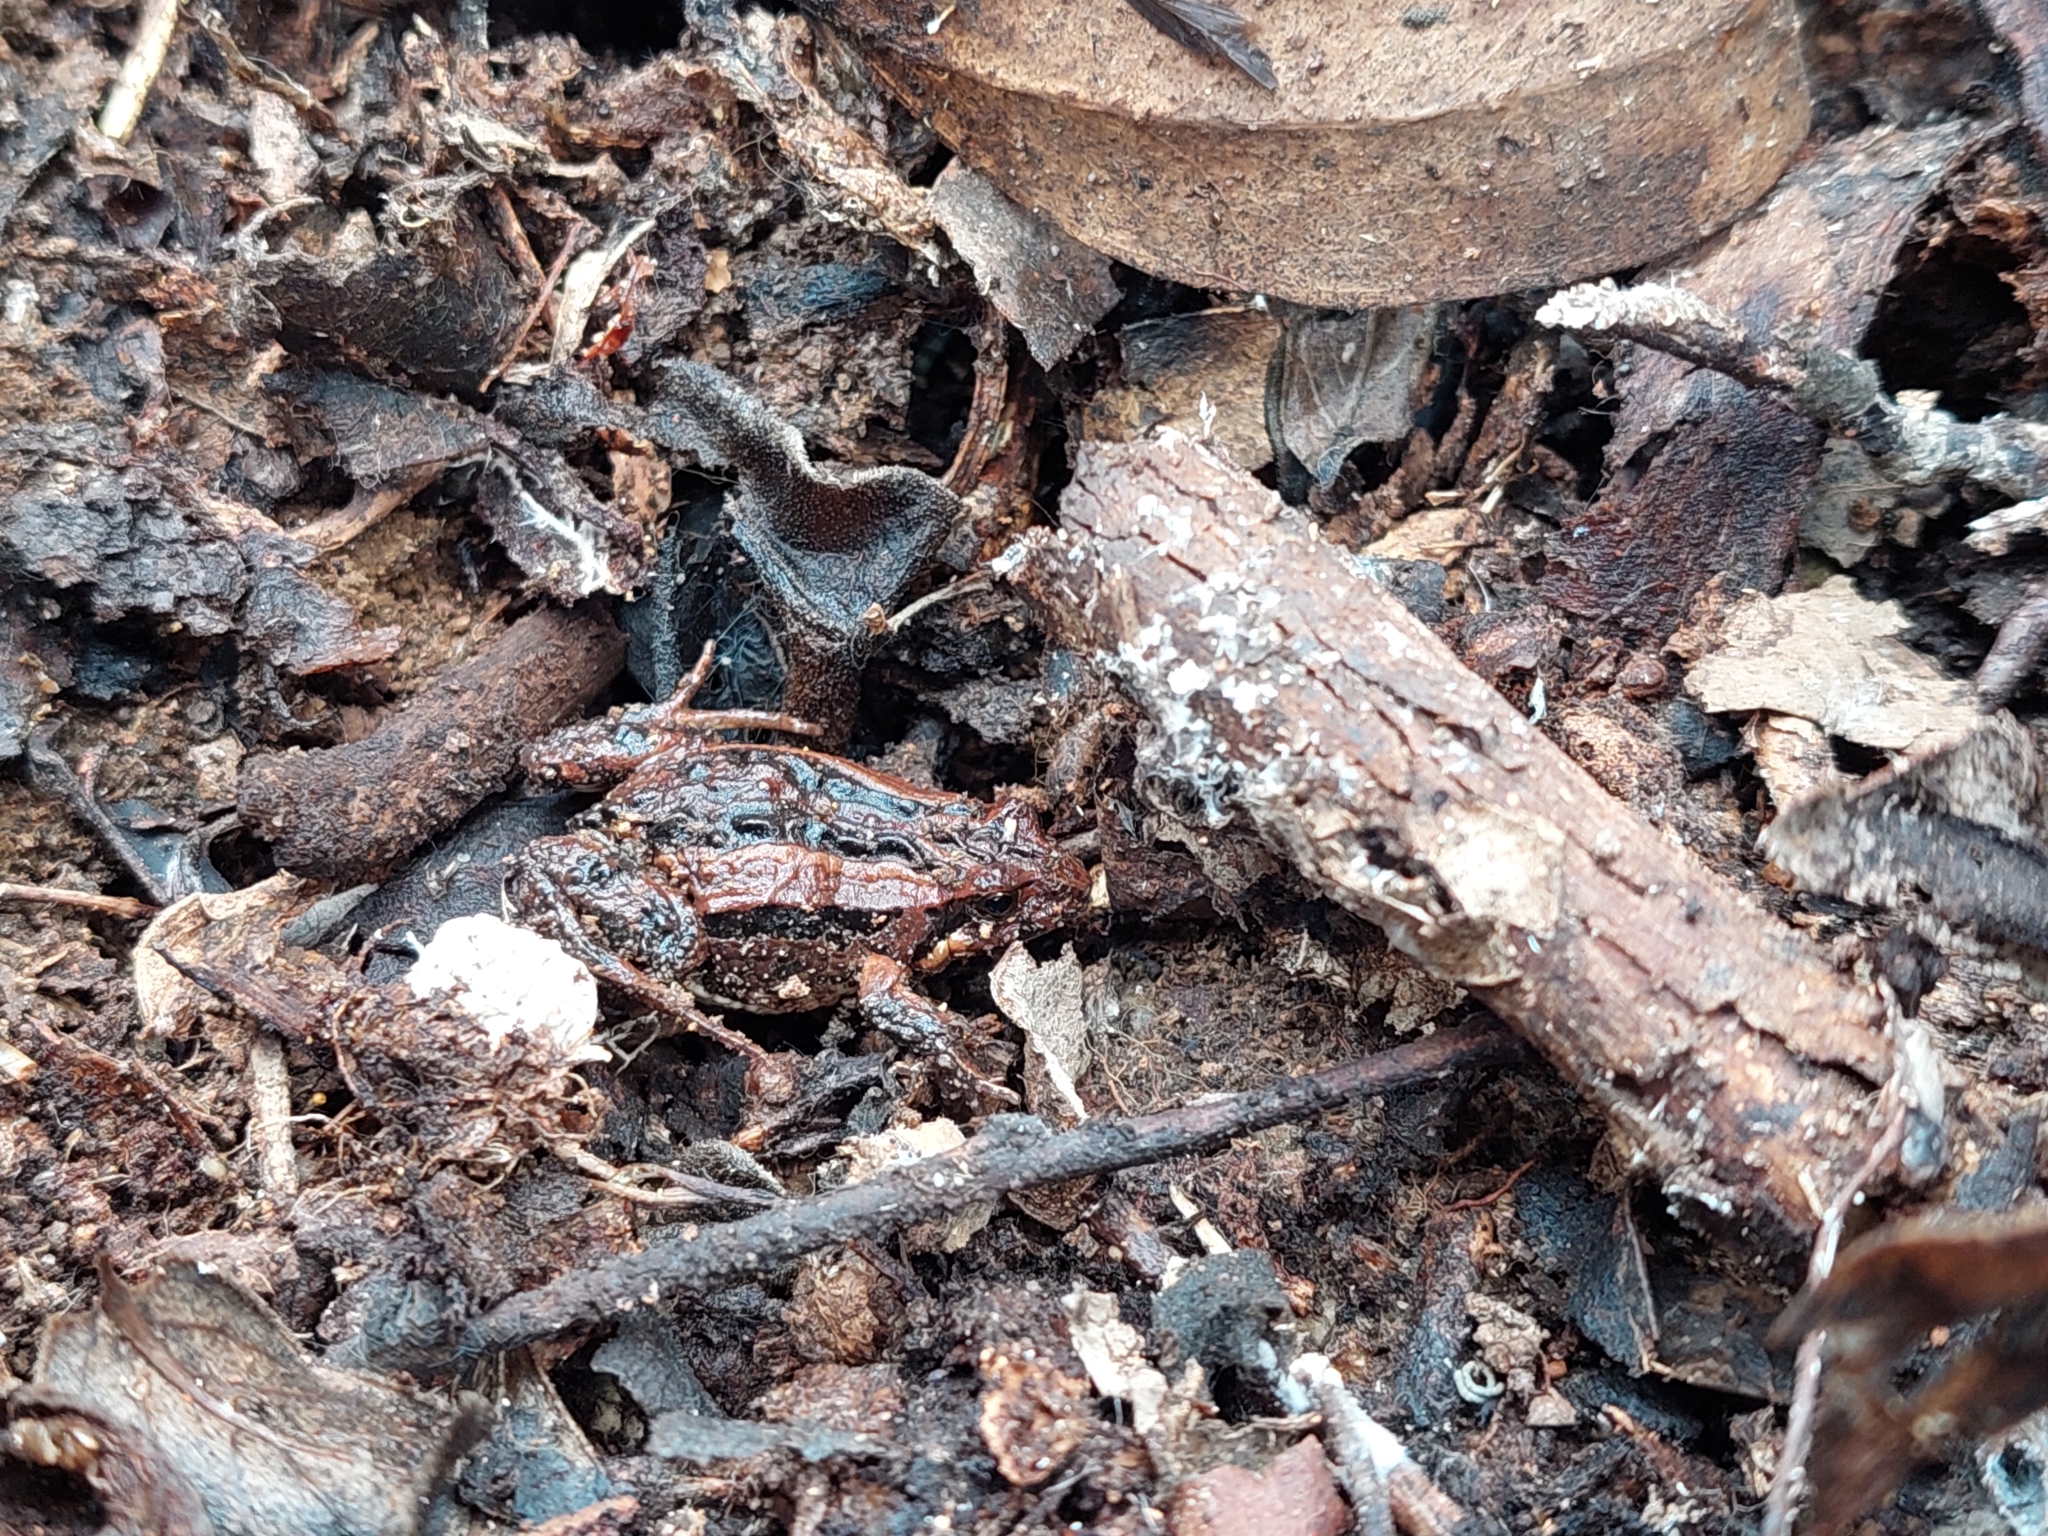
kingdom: Animalia
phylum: Chordata
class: Amphibia
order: Anura
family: Myobatrachidae
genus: Crinia
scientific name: Crinia signifera
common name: Brown froglet
